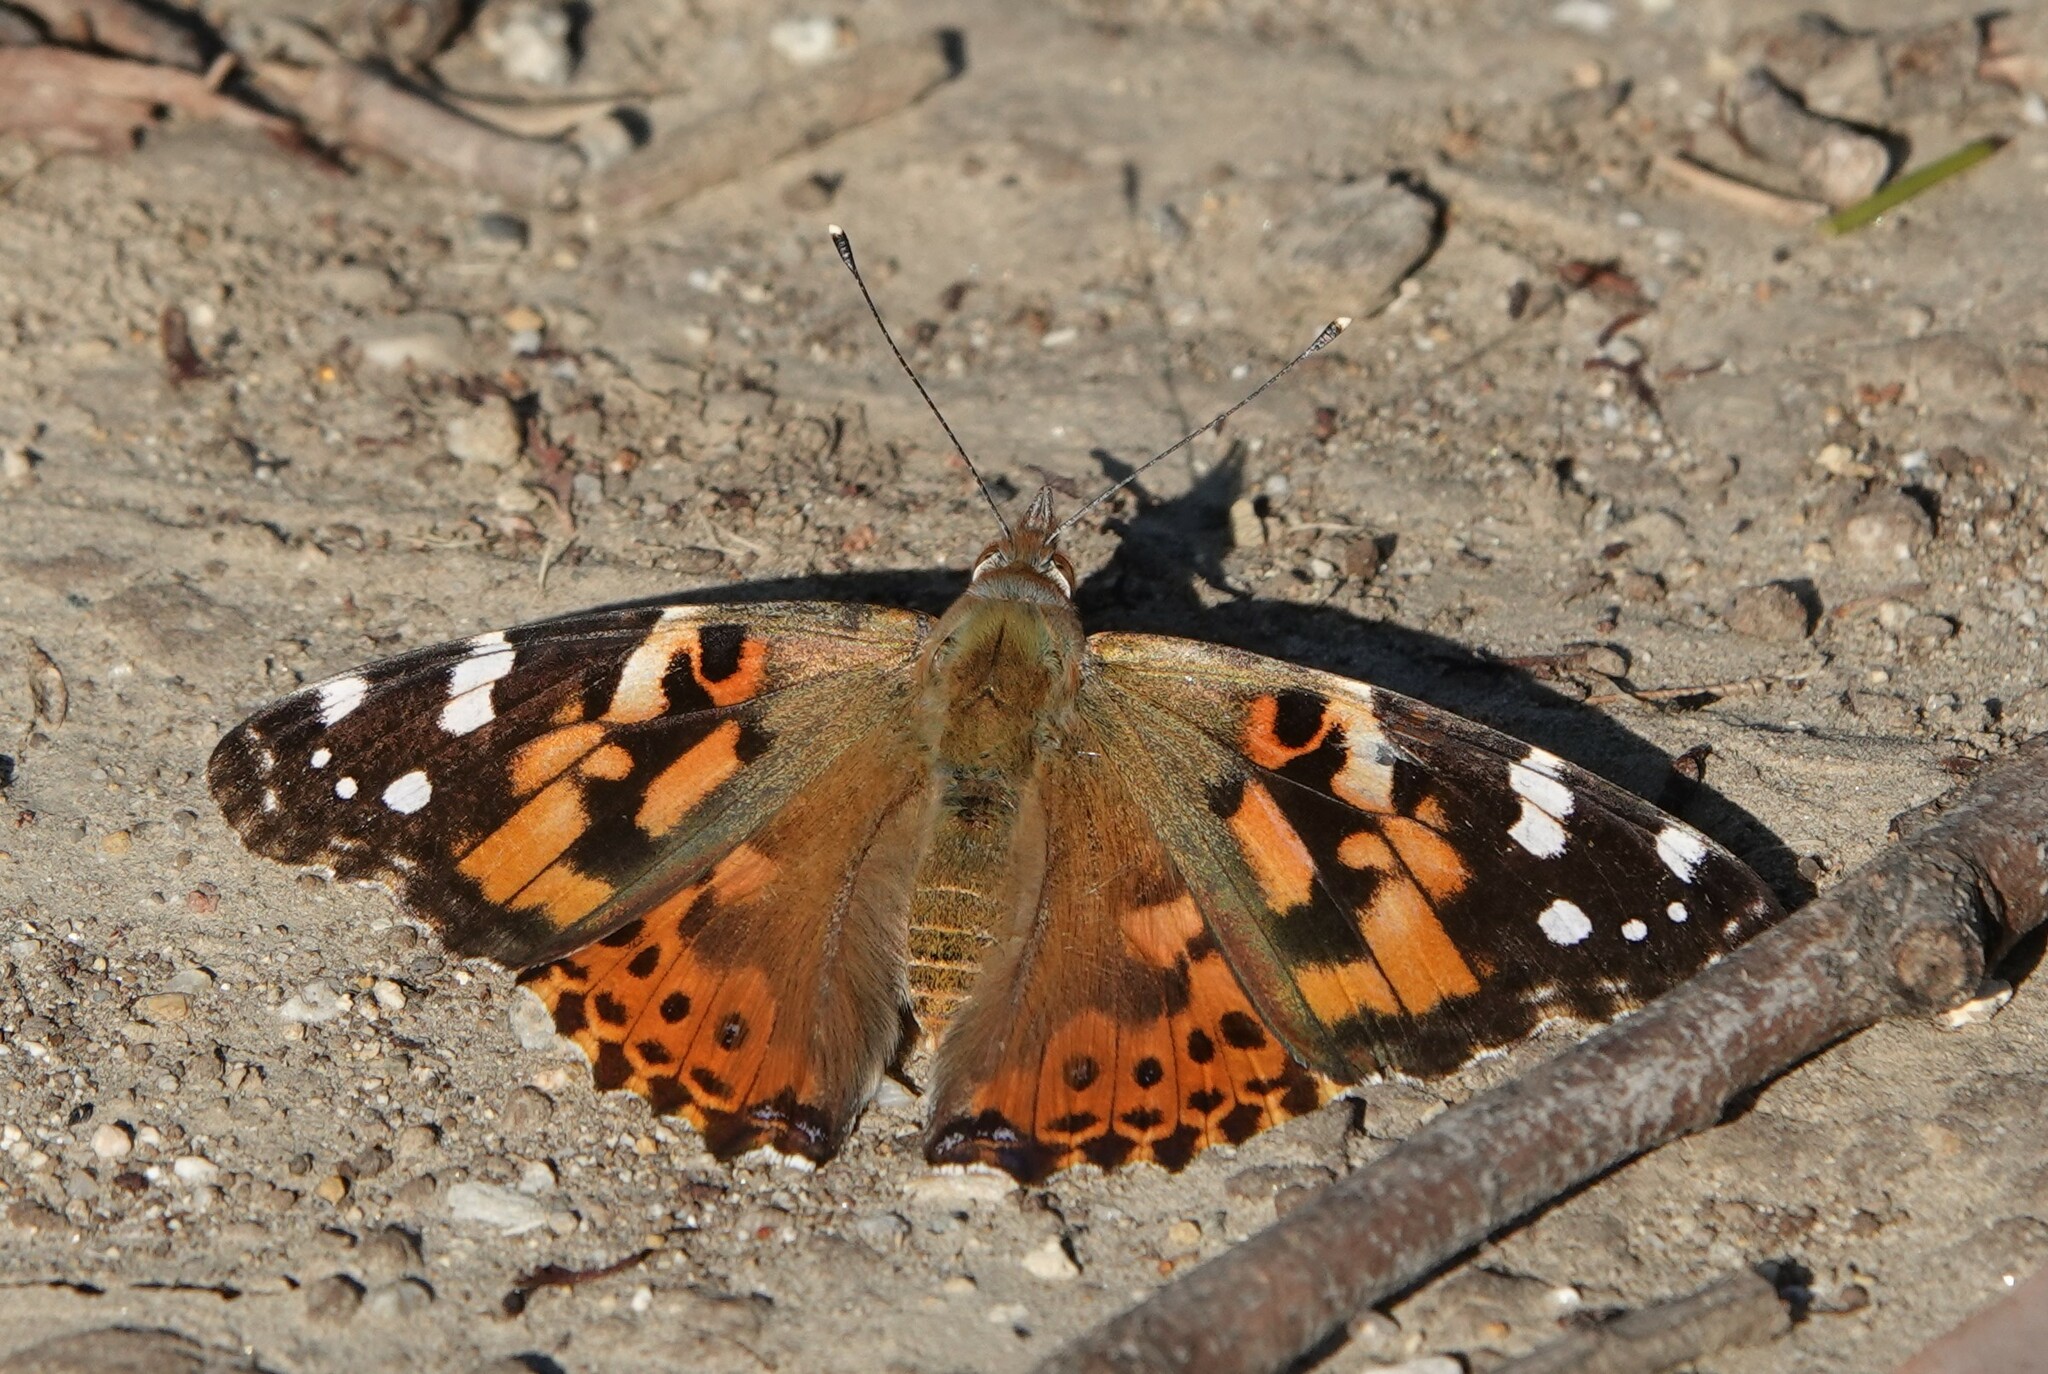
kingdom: Animalia
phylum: Arthropoda
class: Insecta
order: Lepidoptera
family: Nymphalidae
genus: Vanessa
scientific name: Vanessa cardui
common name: Painted lady
